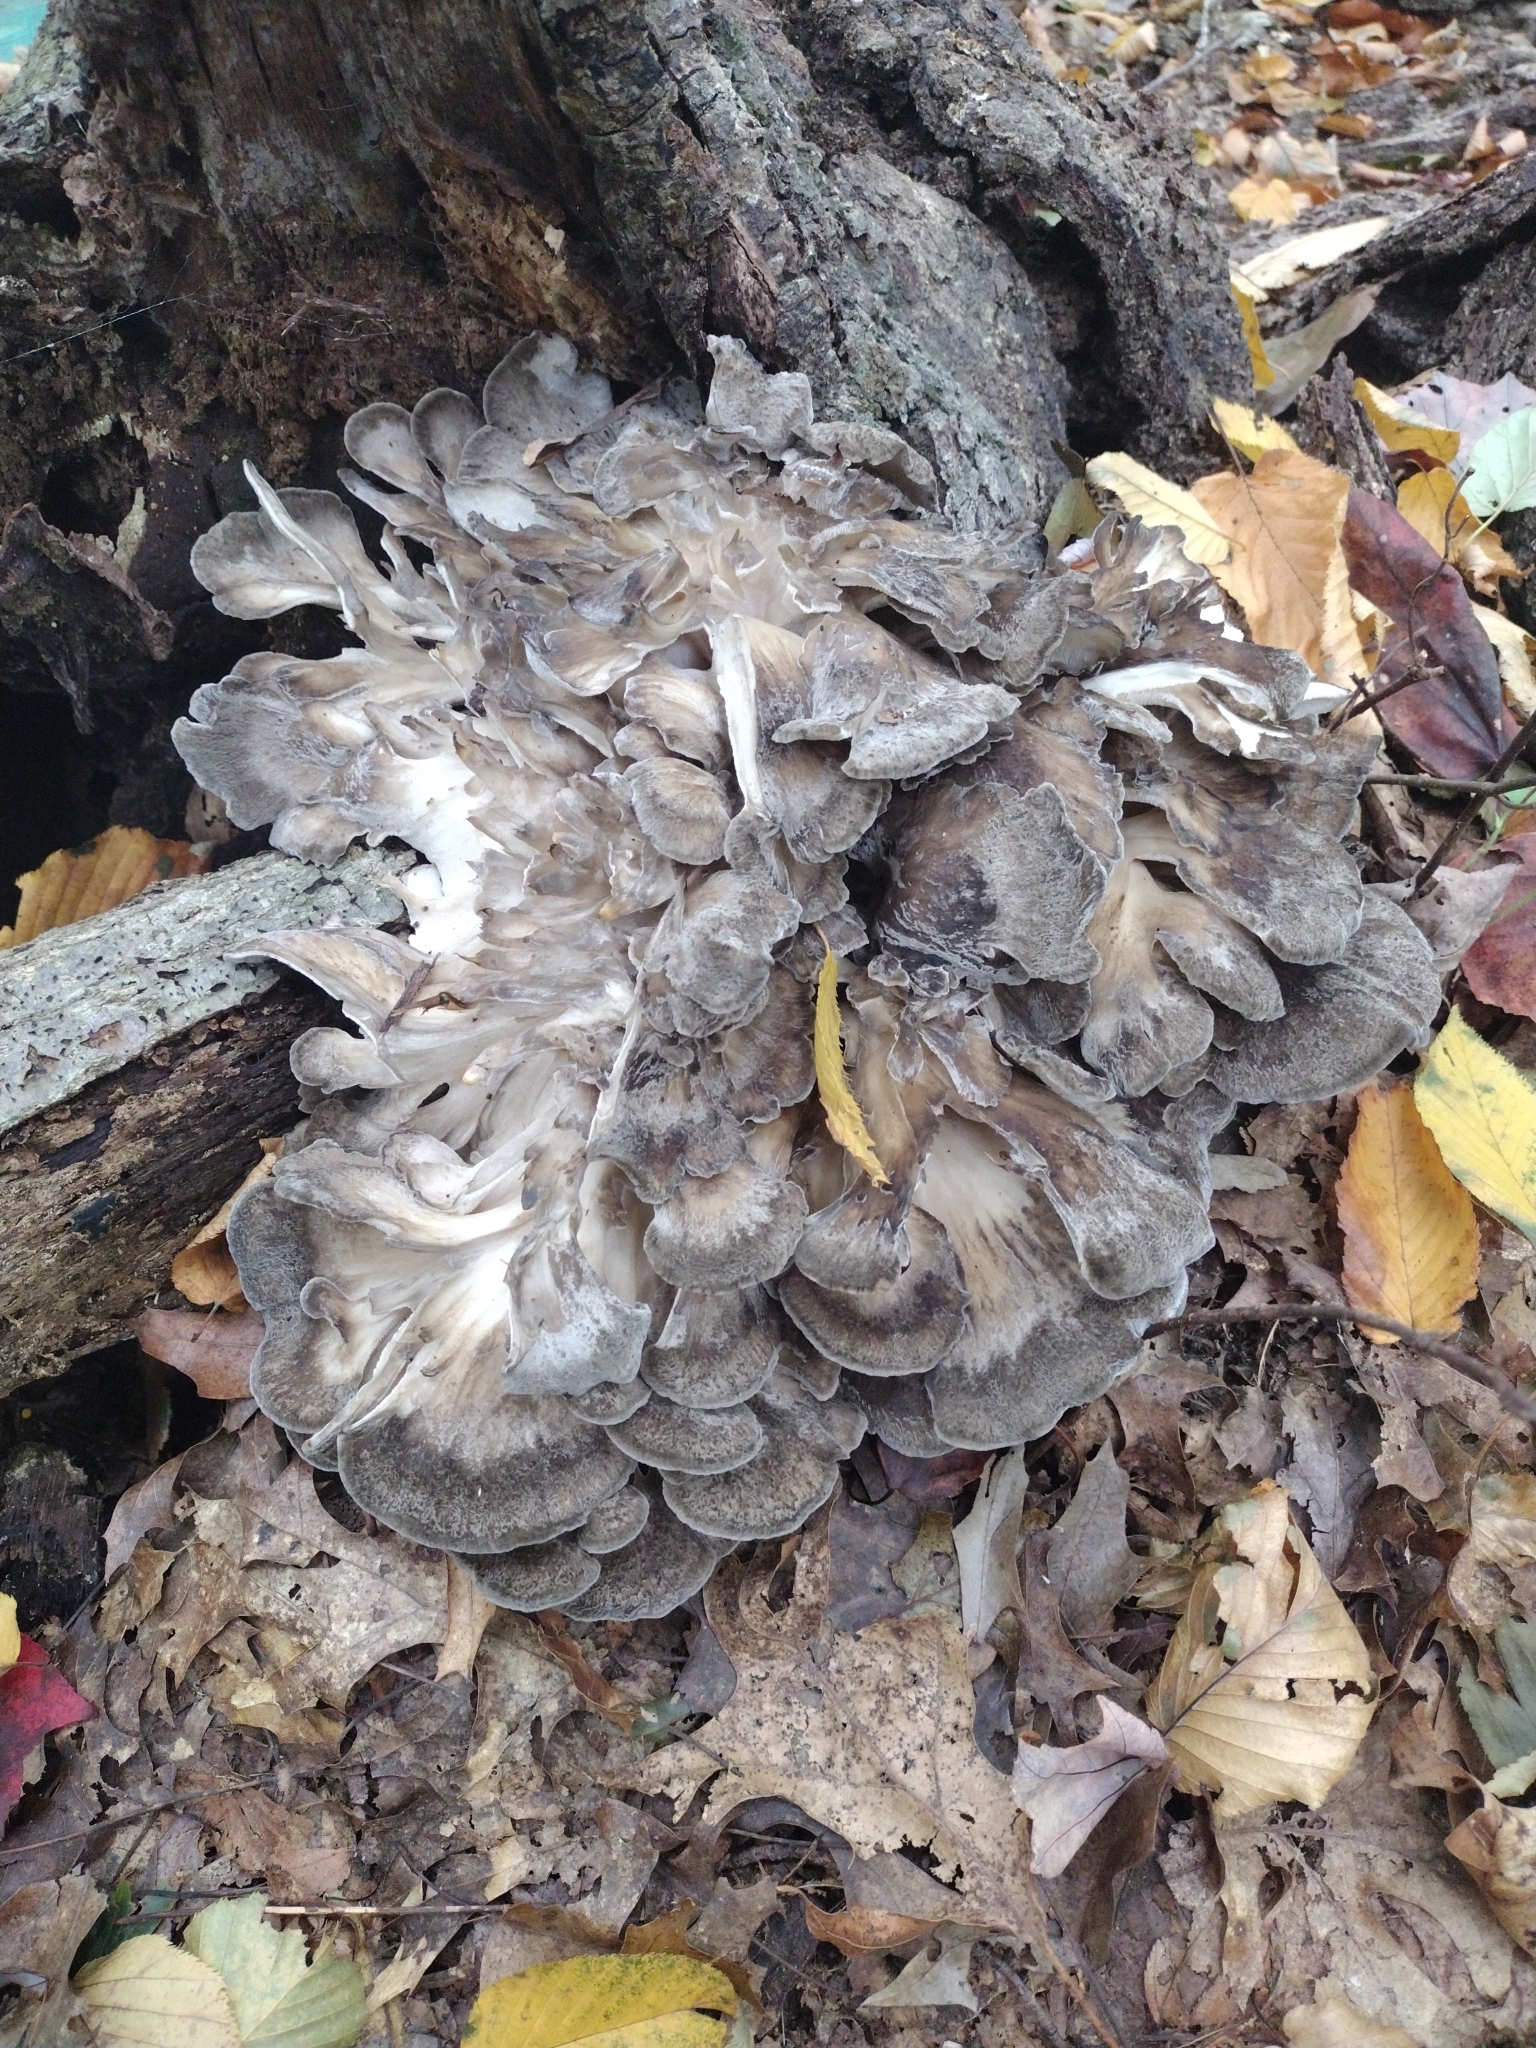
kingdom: Fungi
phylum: Basidiomycota
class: Agaricomycetes
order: Polyporales
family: Grifolaceae
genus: Grifola
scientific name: Grifola frondosa
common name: Hen of the woods
